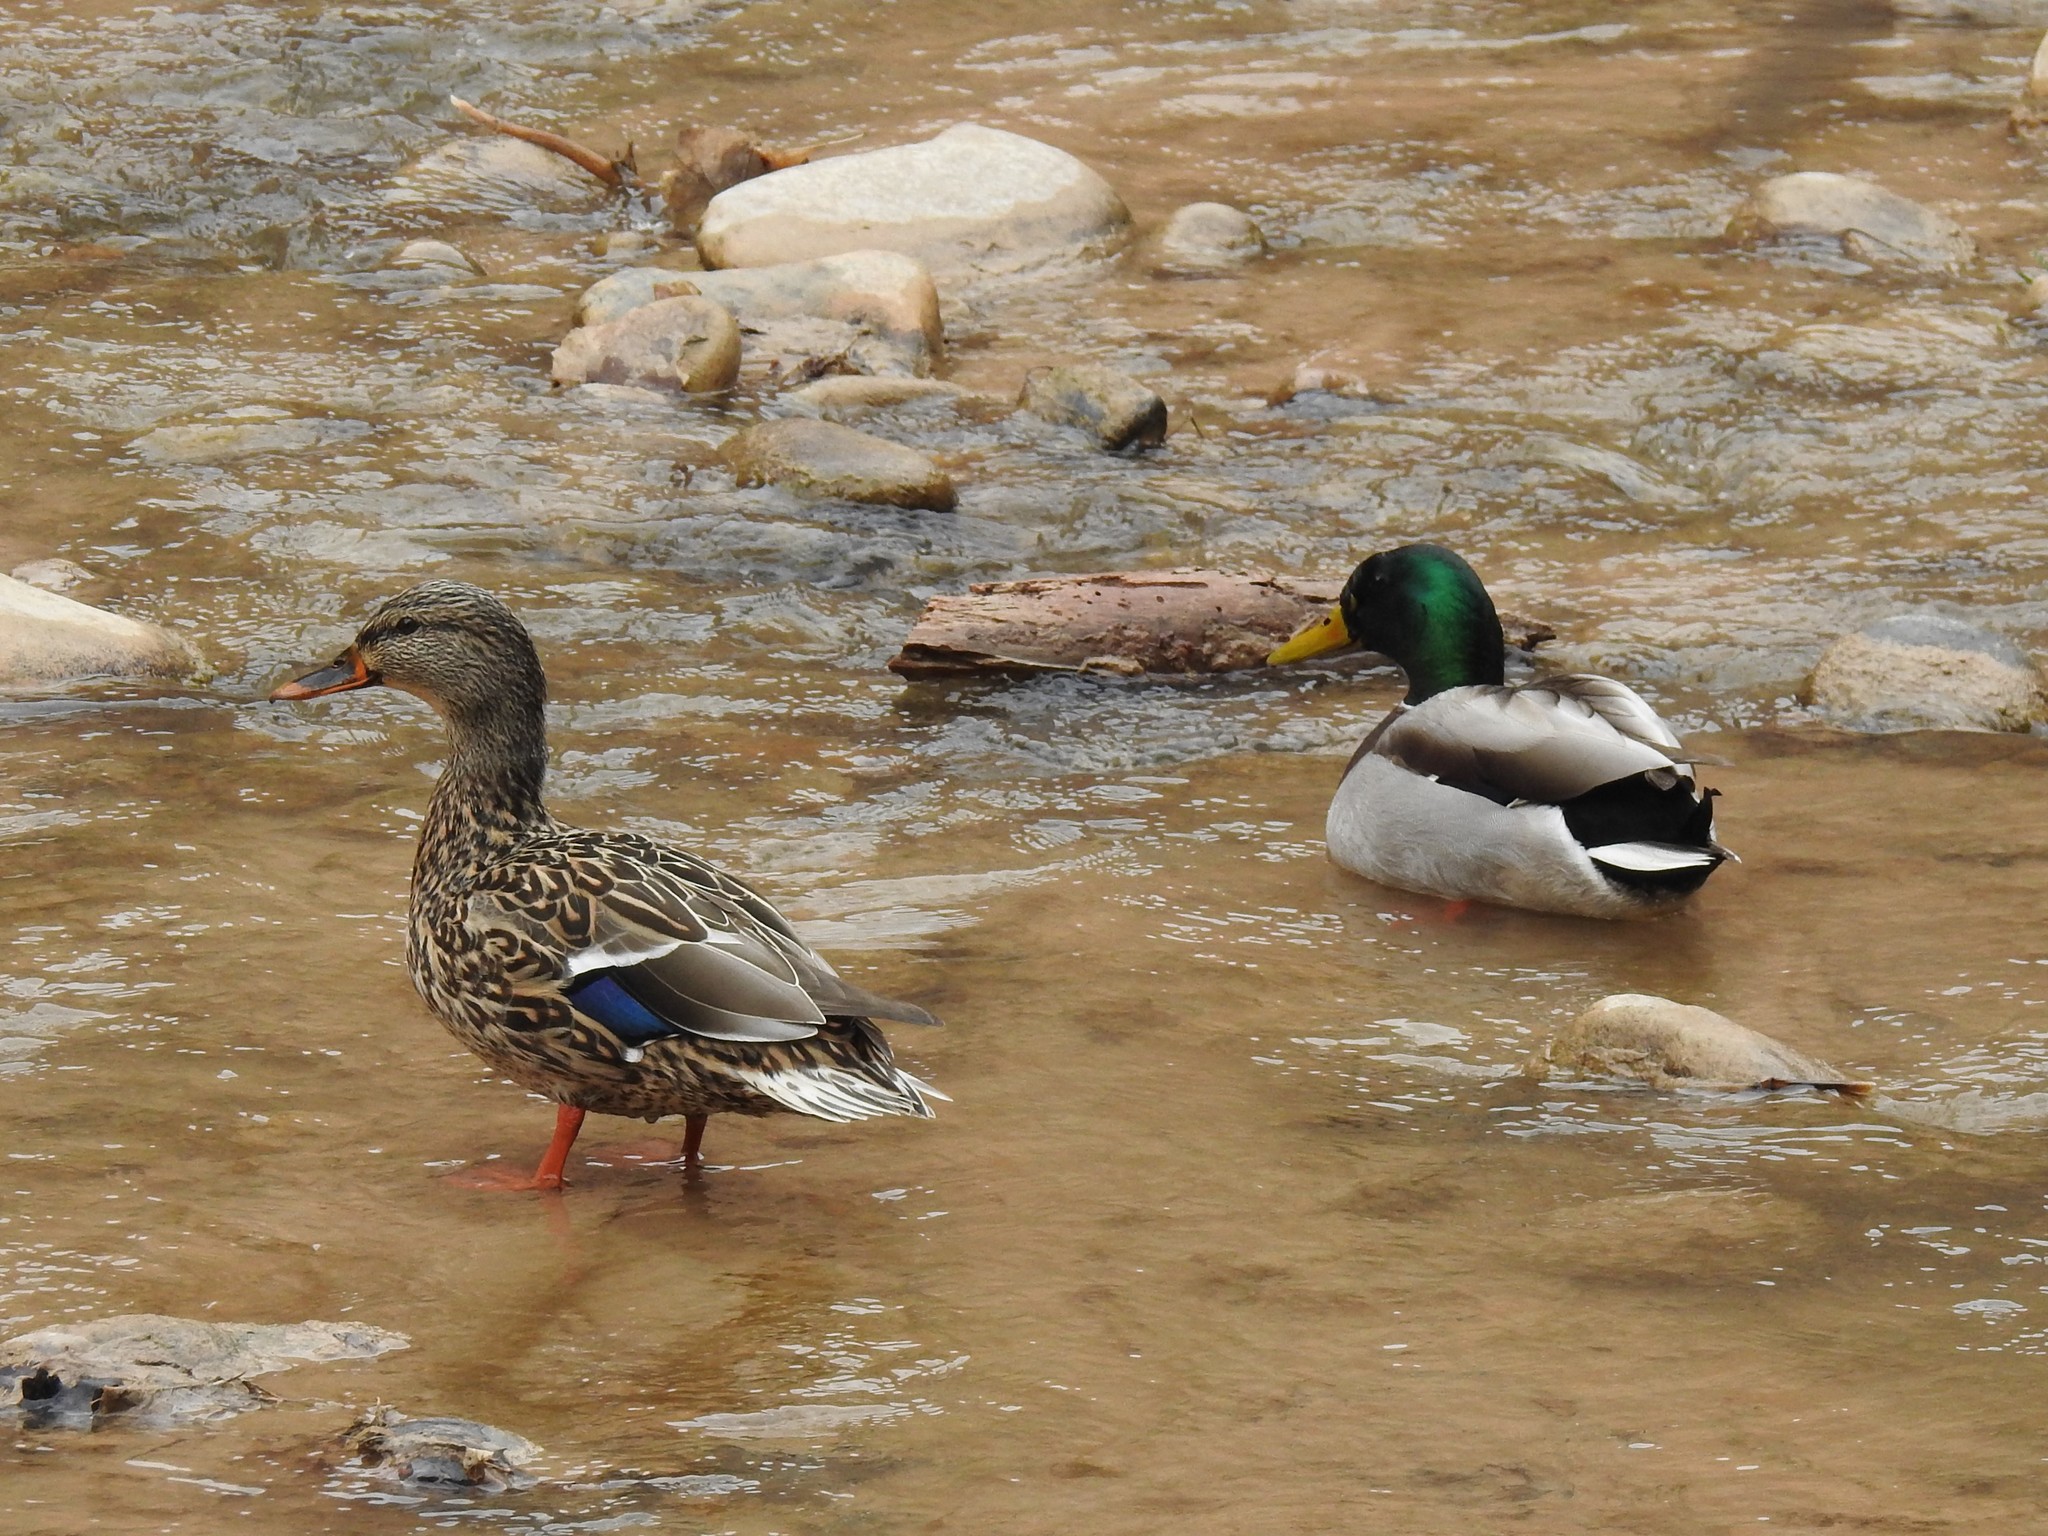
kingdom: Animalia
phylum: Chordata
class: Aves
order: Anseriformes
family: Anatidae
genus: Anas
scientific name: Anas platyrhynchos
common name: Mallard
